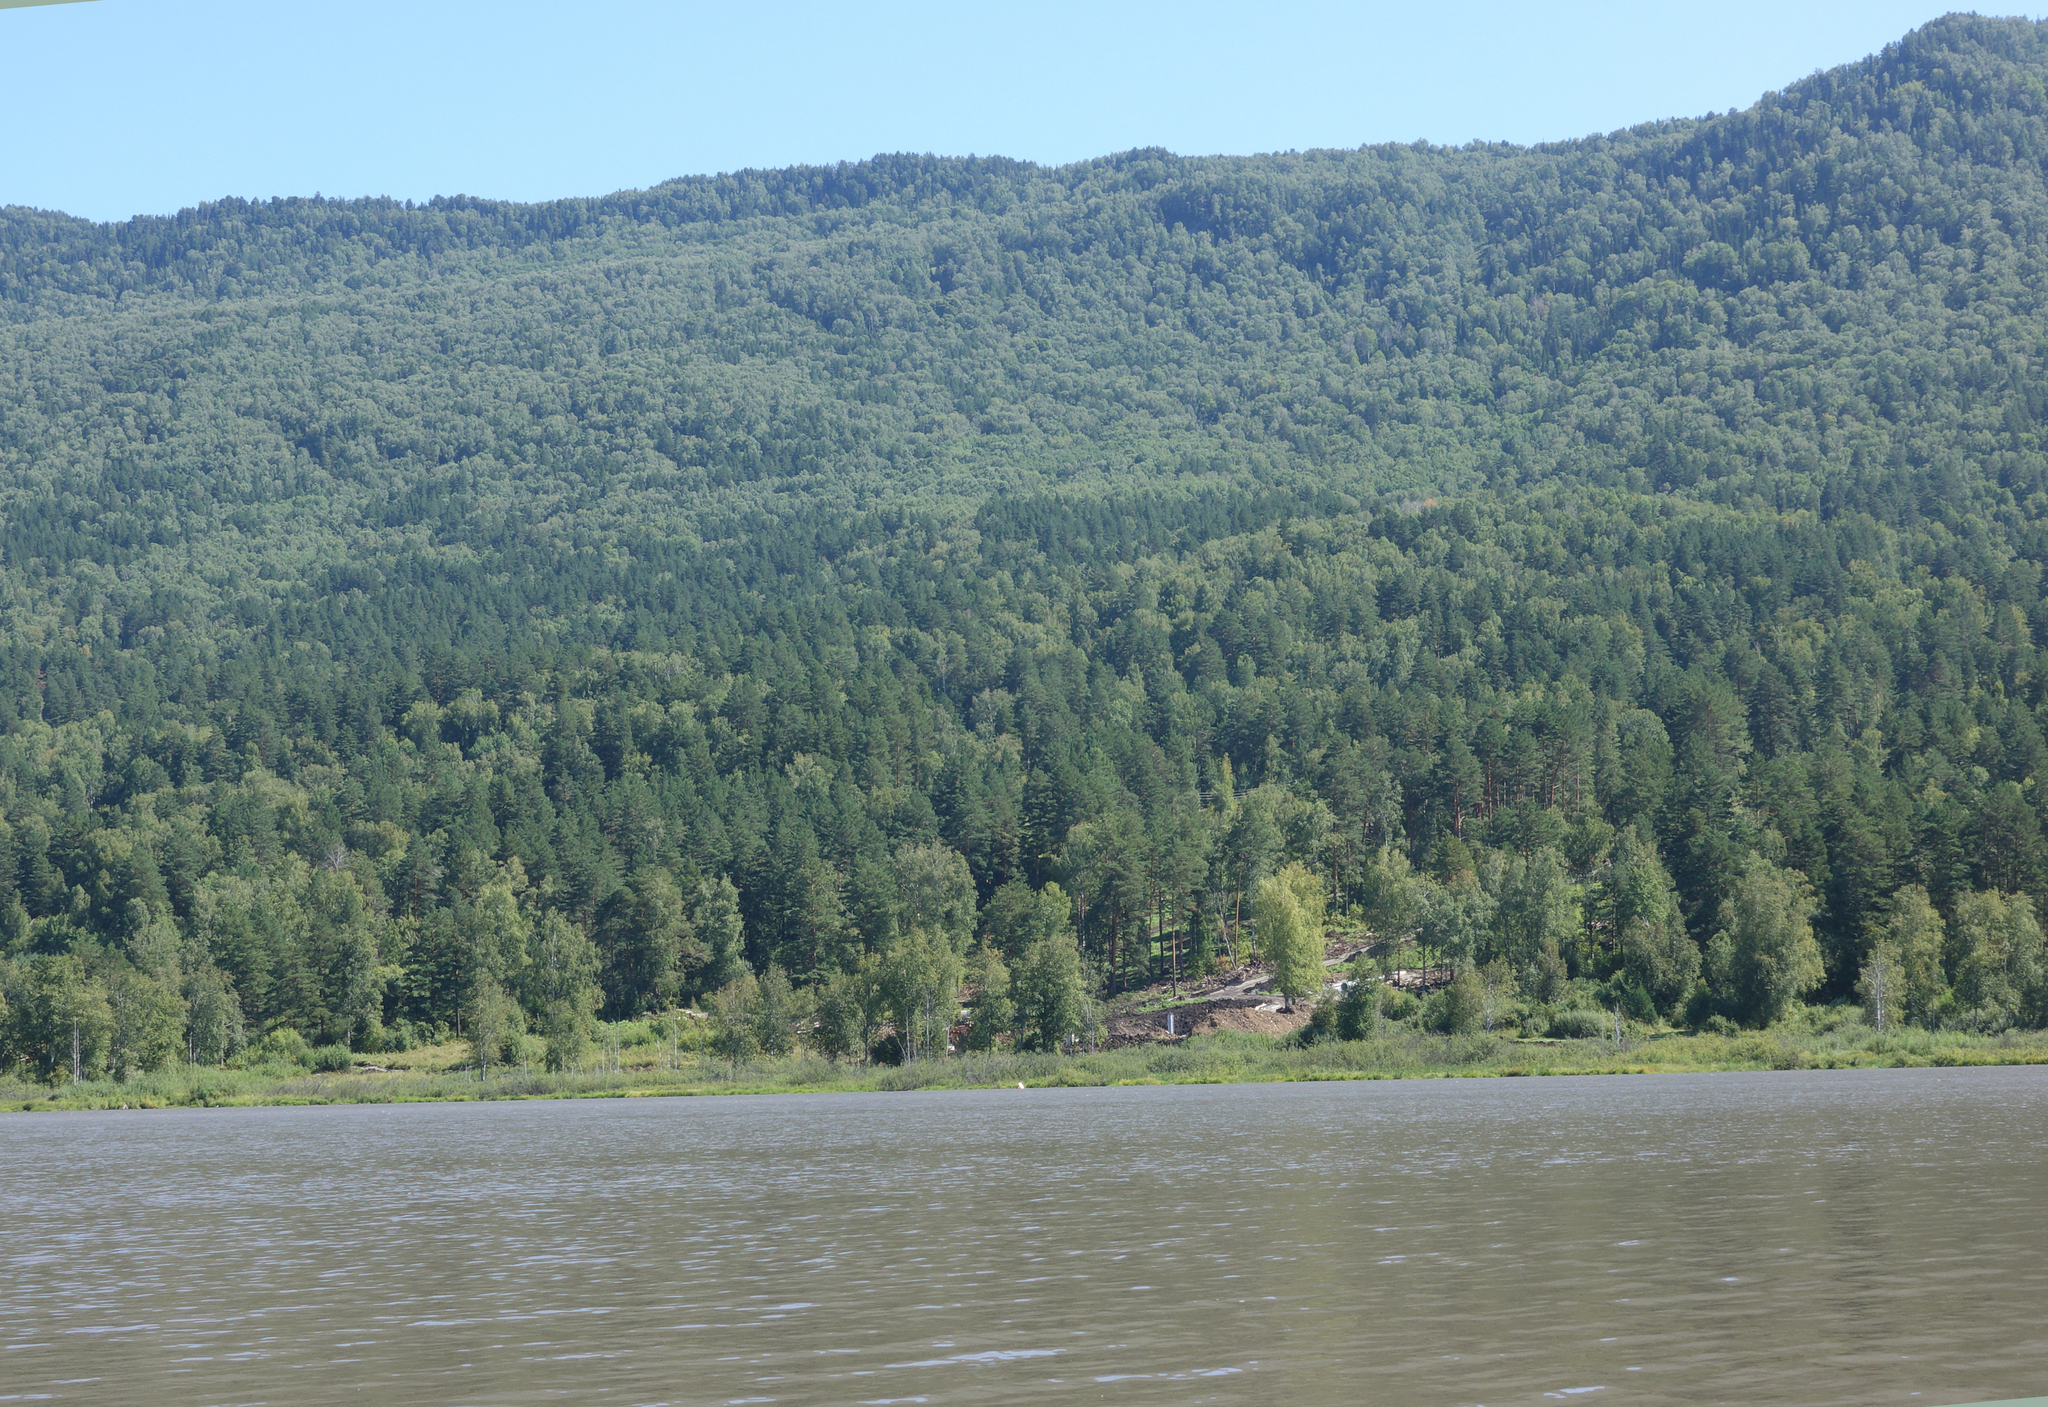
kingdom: Plantae
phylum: Tracheophyta
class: Pinopsida
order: Pinales
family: Pinaceae
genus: Pinus
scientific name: Pinus sylvestris
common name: Scots pine
